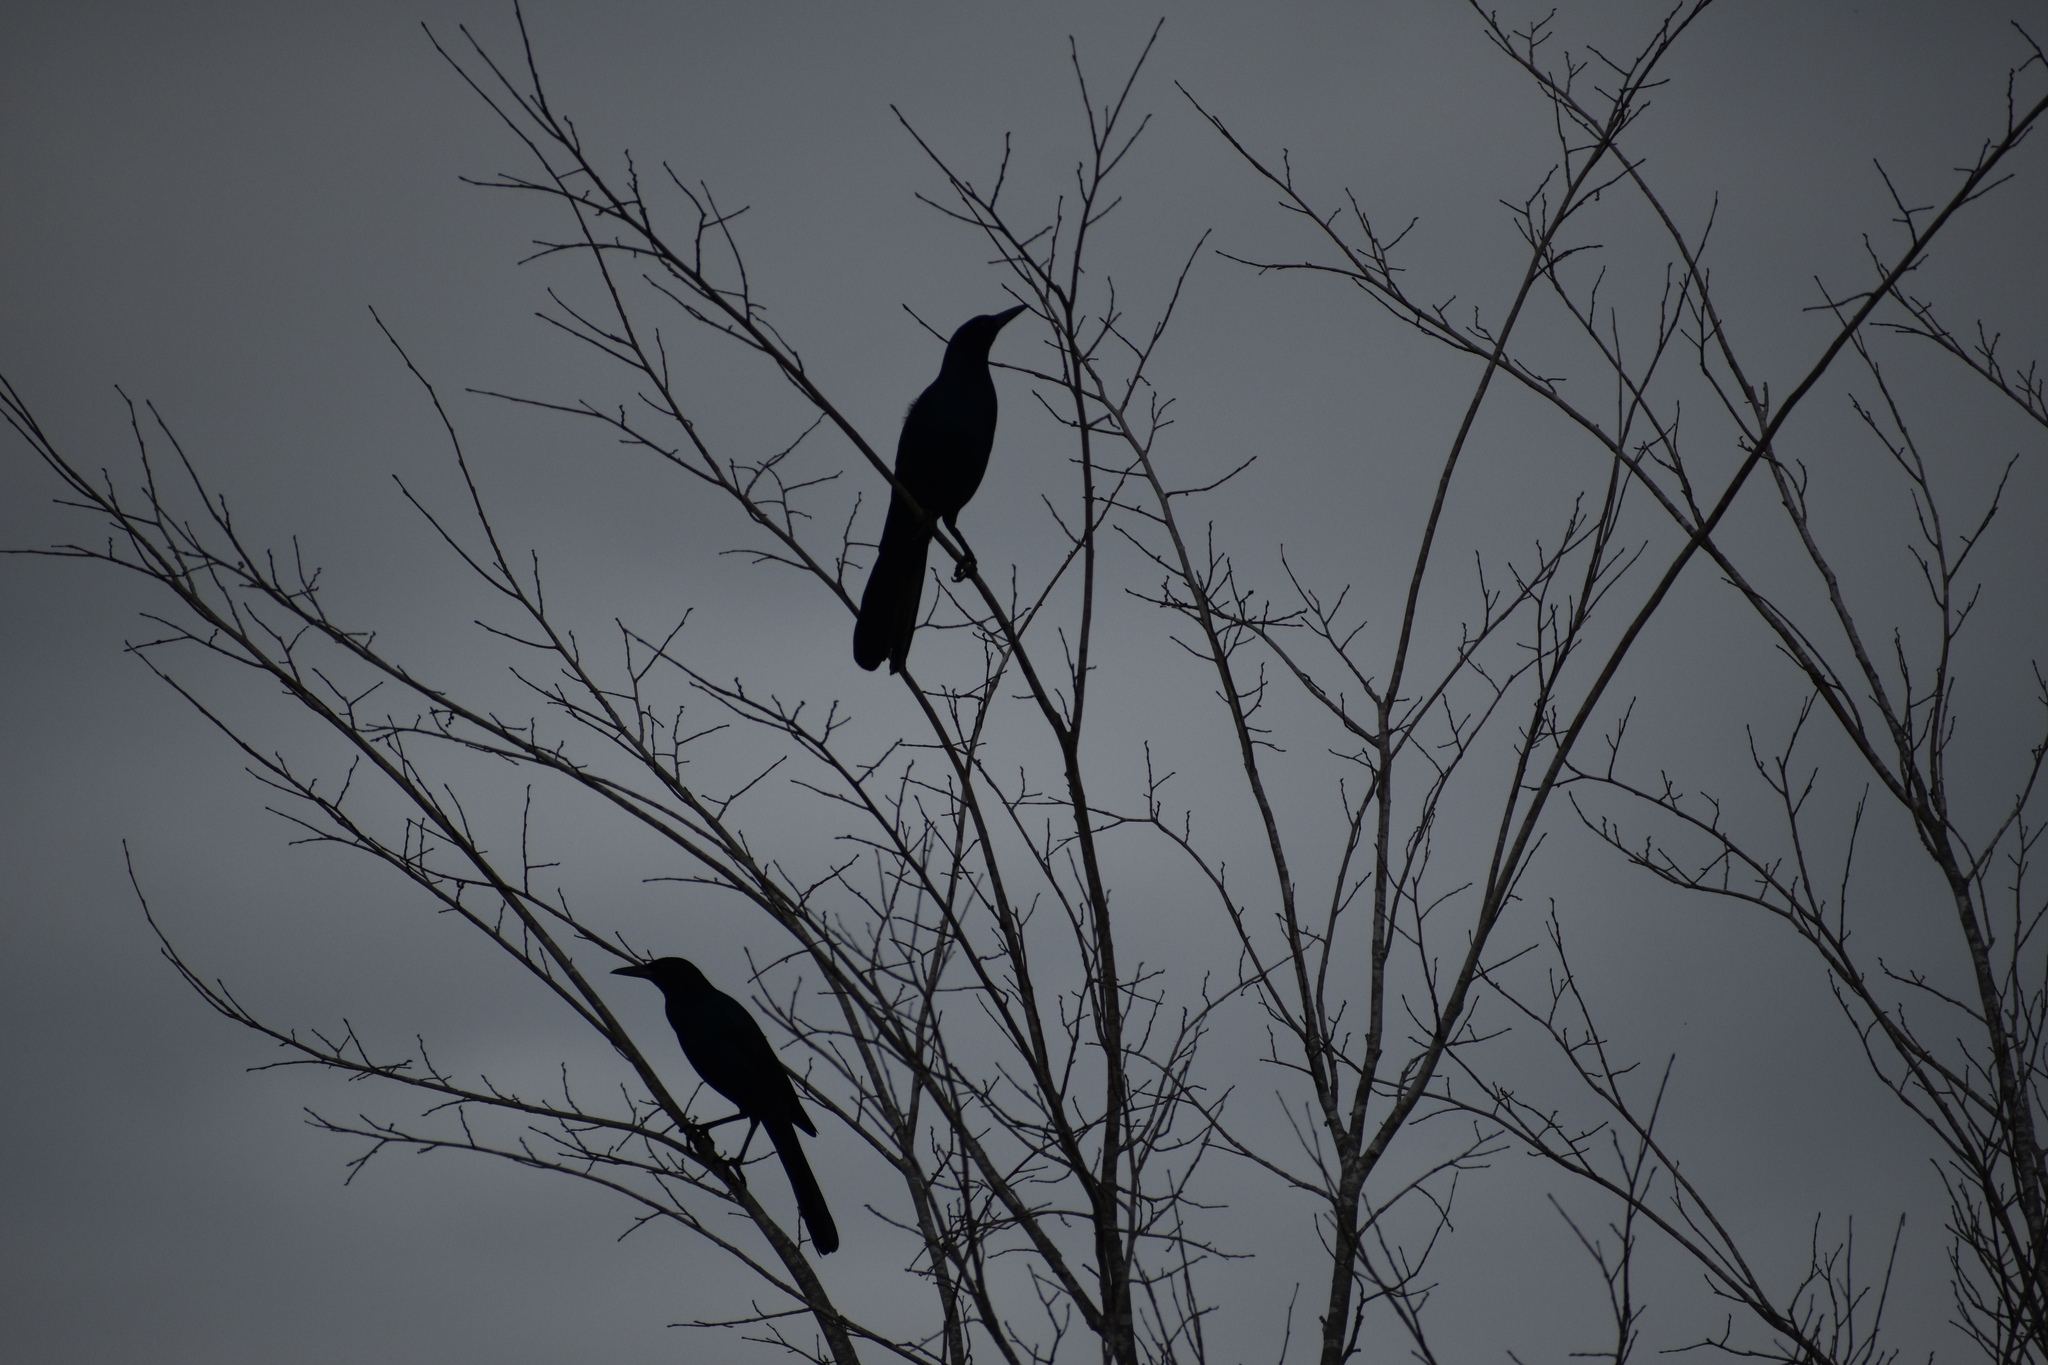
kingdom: Animalia
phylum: Chordata
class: Aves
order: Passeriformes
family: Icteridae
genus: Quiscalus
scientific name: Quiscalus major
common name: Boat-tailed grackle
